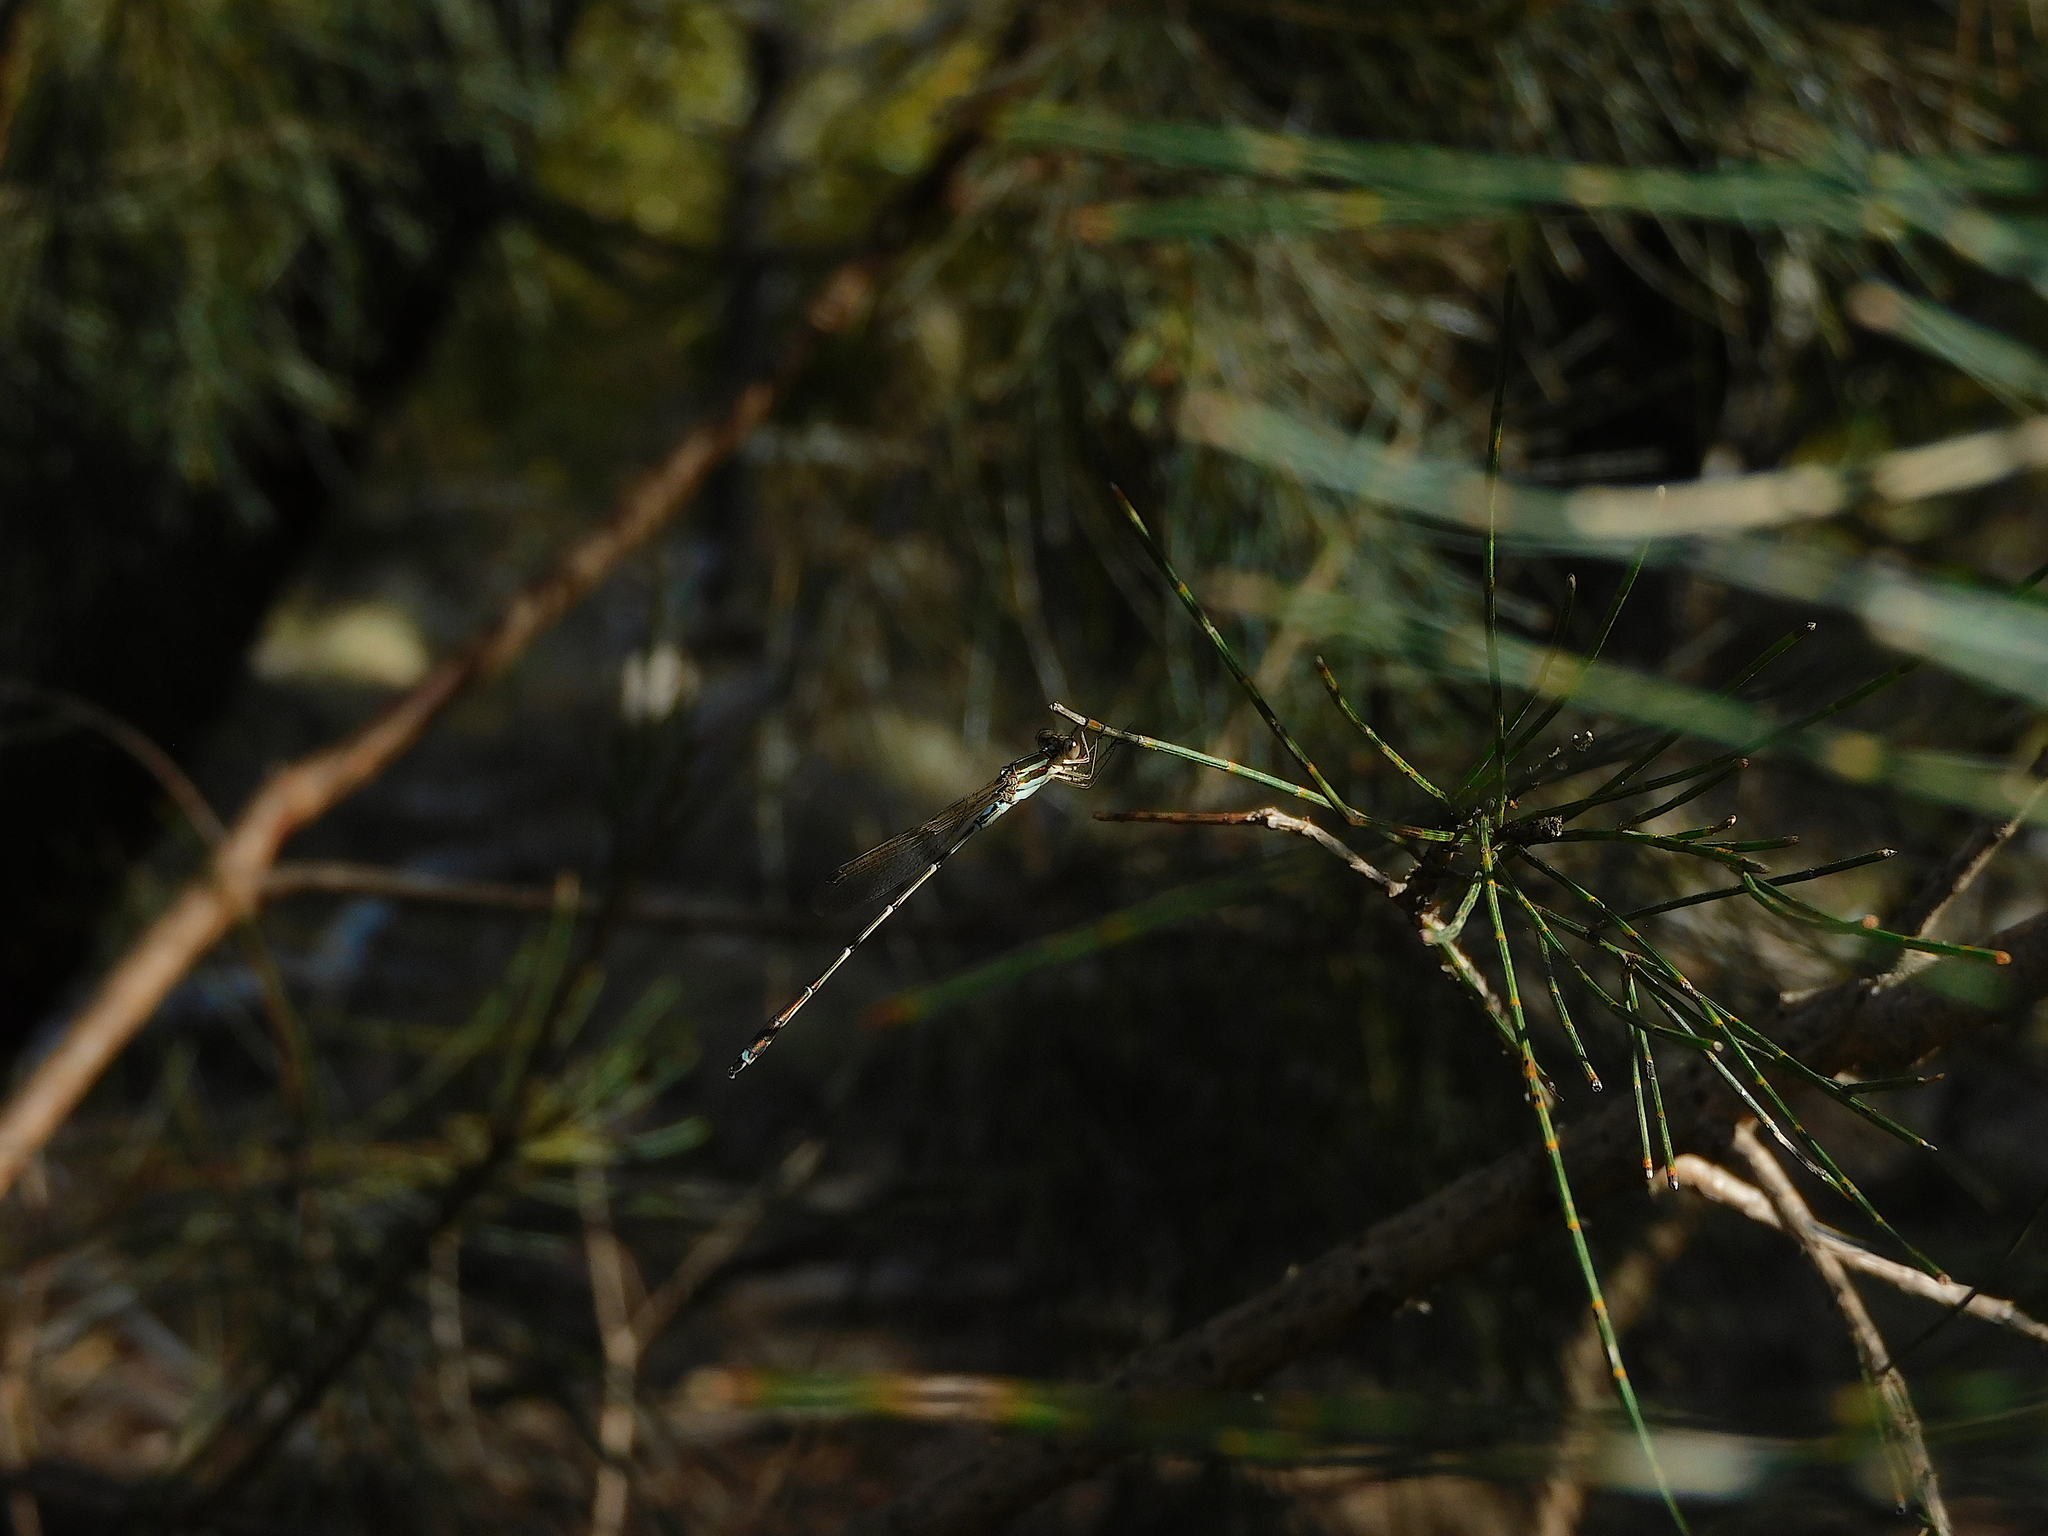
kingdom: Animalia
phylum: Arthropoda
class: Insecta
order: Odonata
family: Lestidae
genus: Austrolestes
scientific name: Austrolestes analis
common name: Slender ringtail
